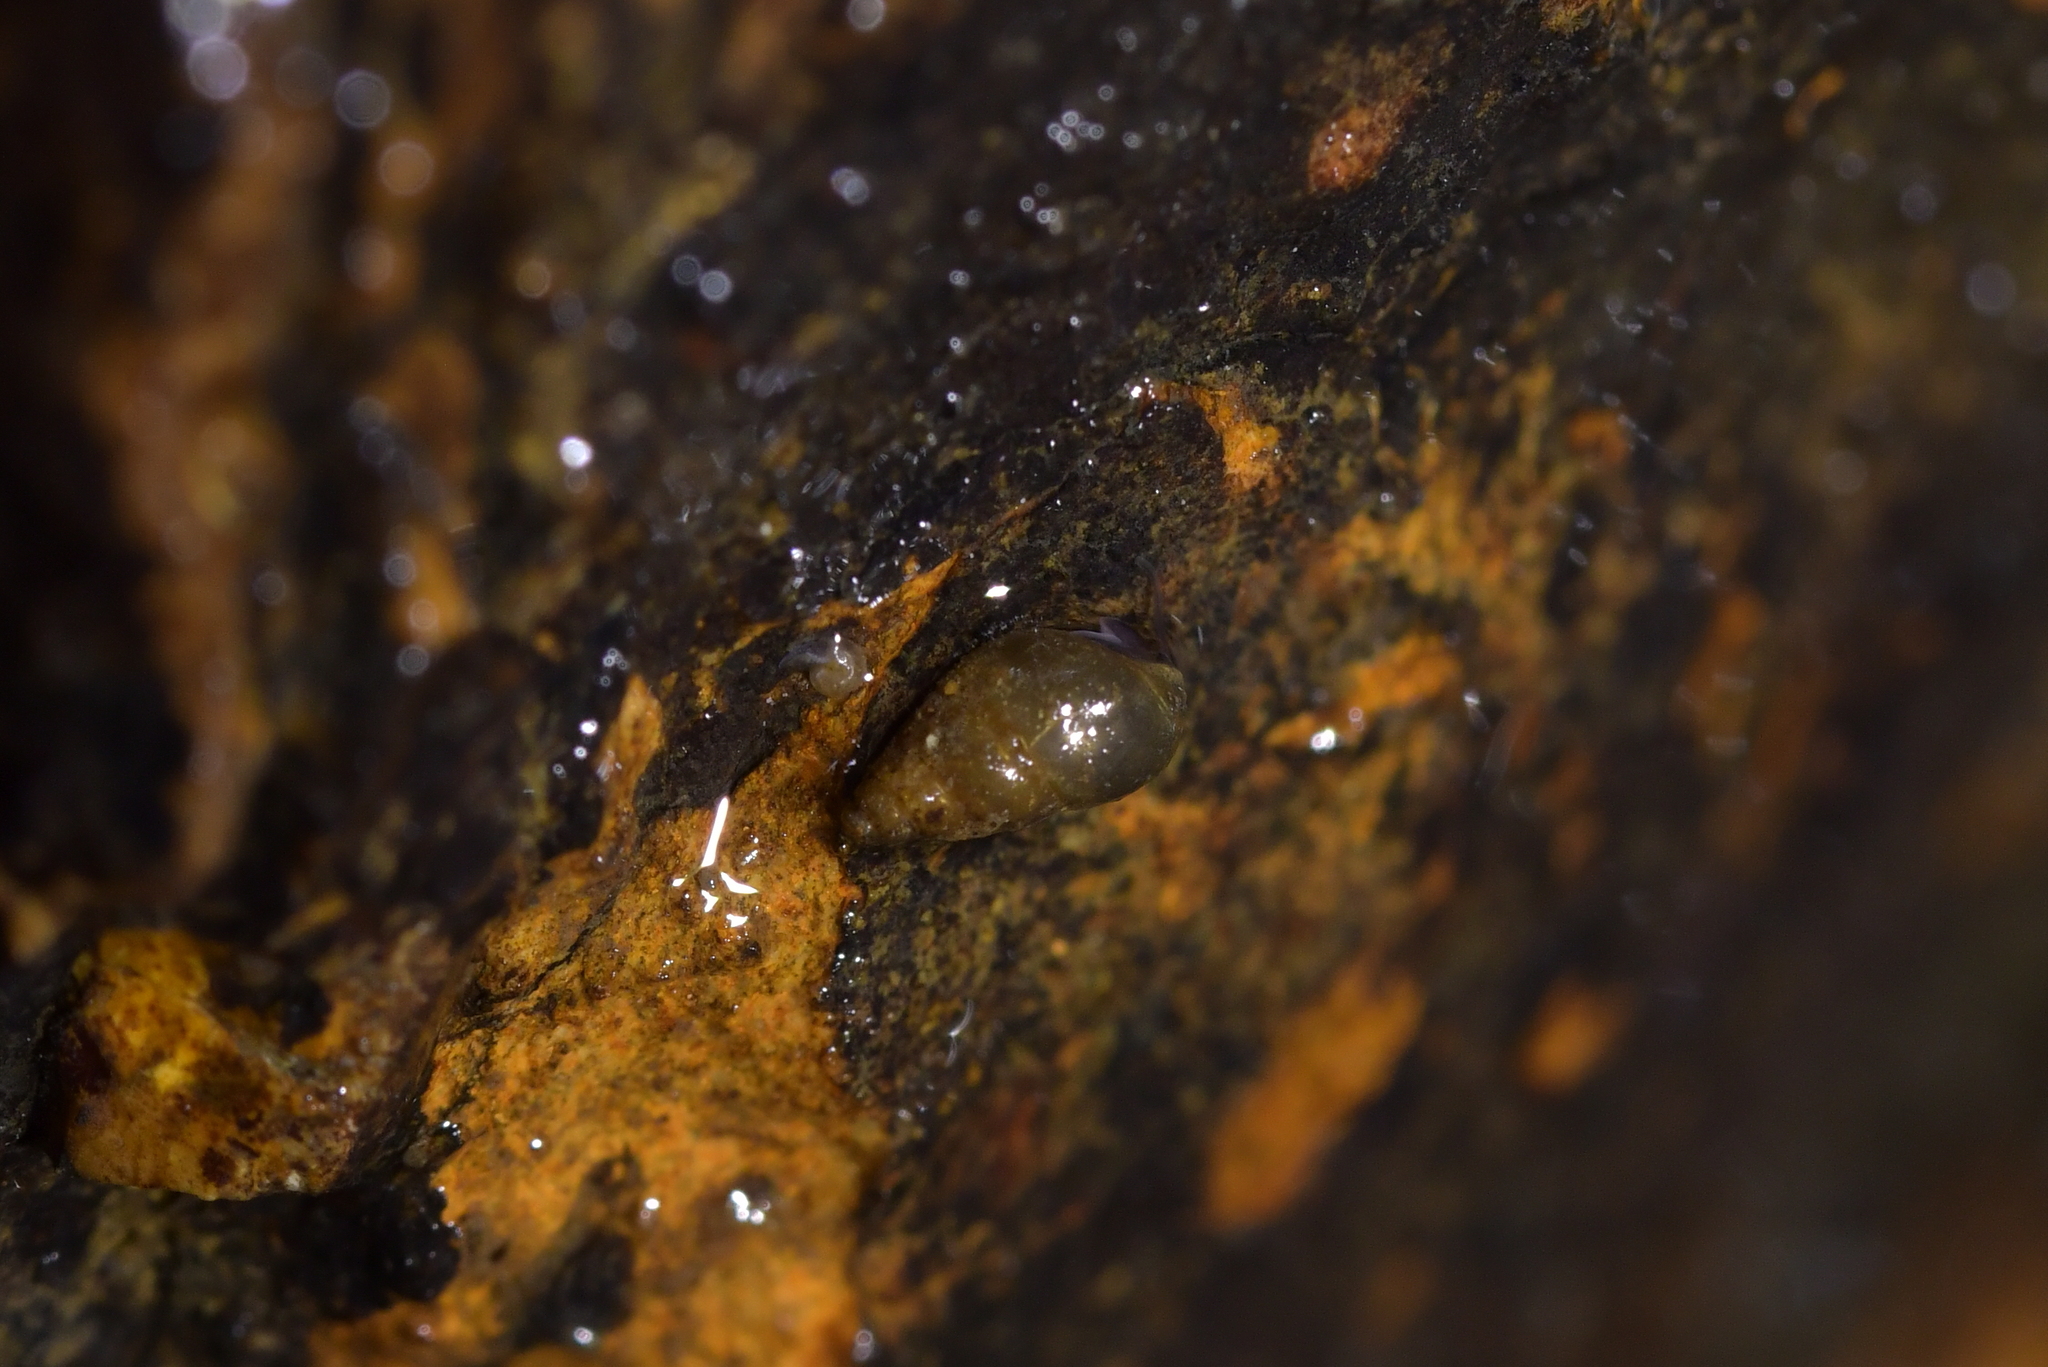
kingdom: Animalia
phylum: Mollusca
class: Gastropoda
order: Littorinimorpha
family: Tateidae
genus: Potamopyrgus
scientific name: Potamopyrgus antipodarum
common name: Jenkins' spire snail
